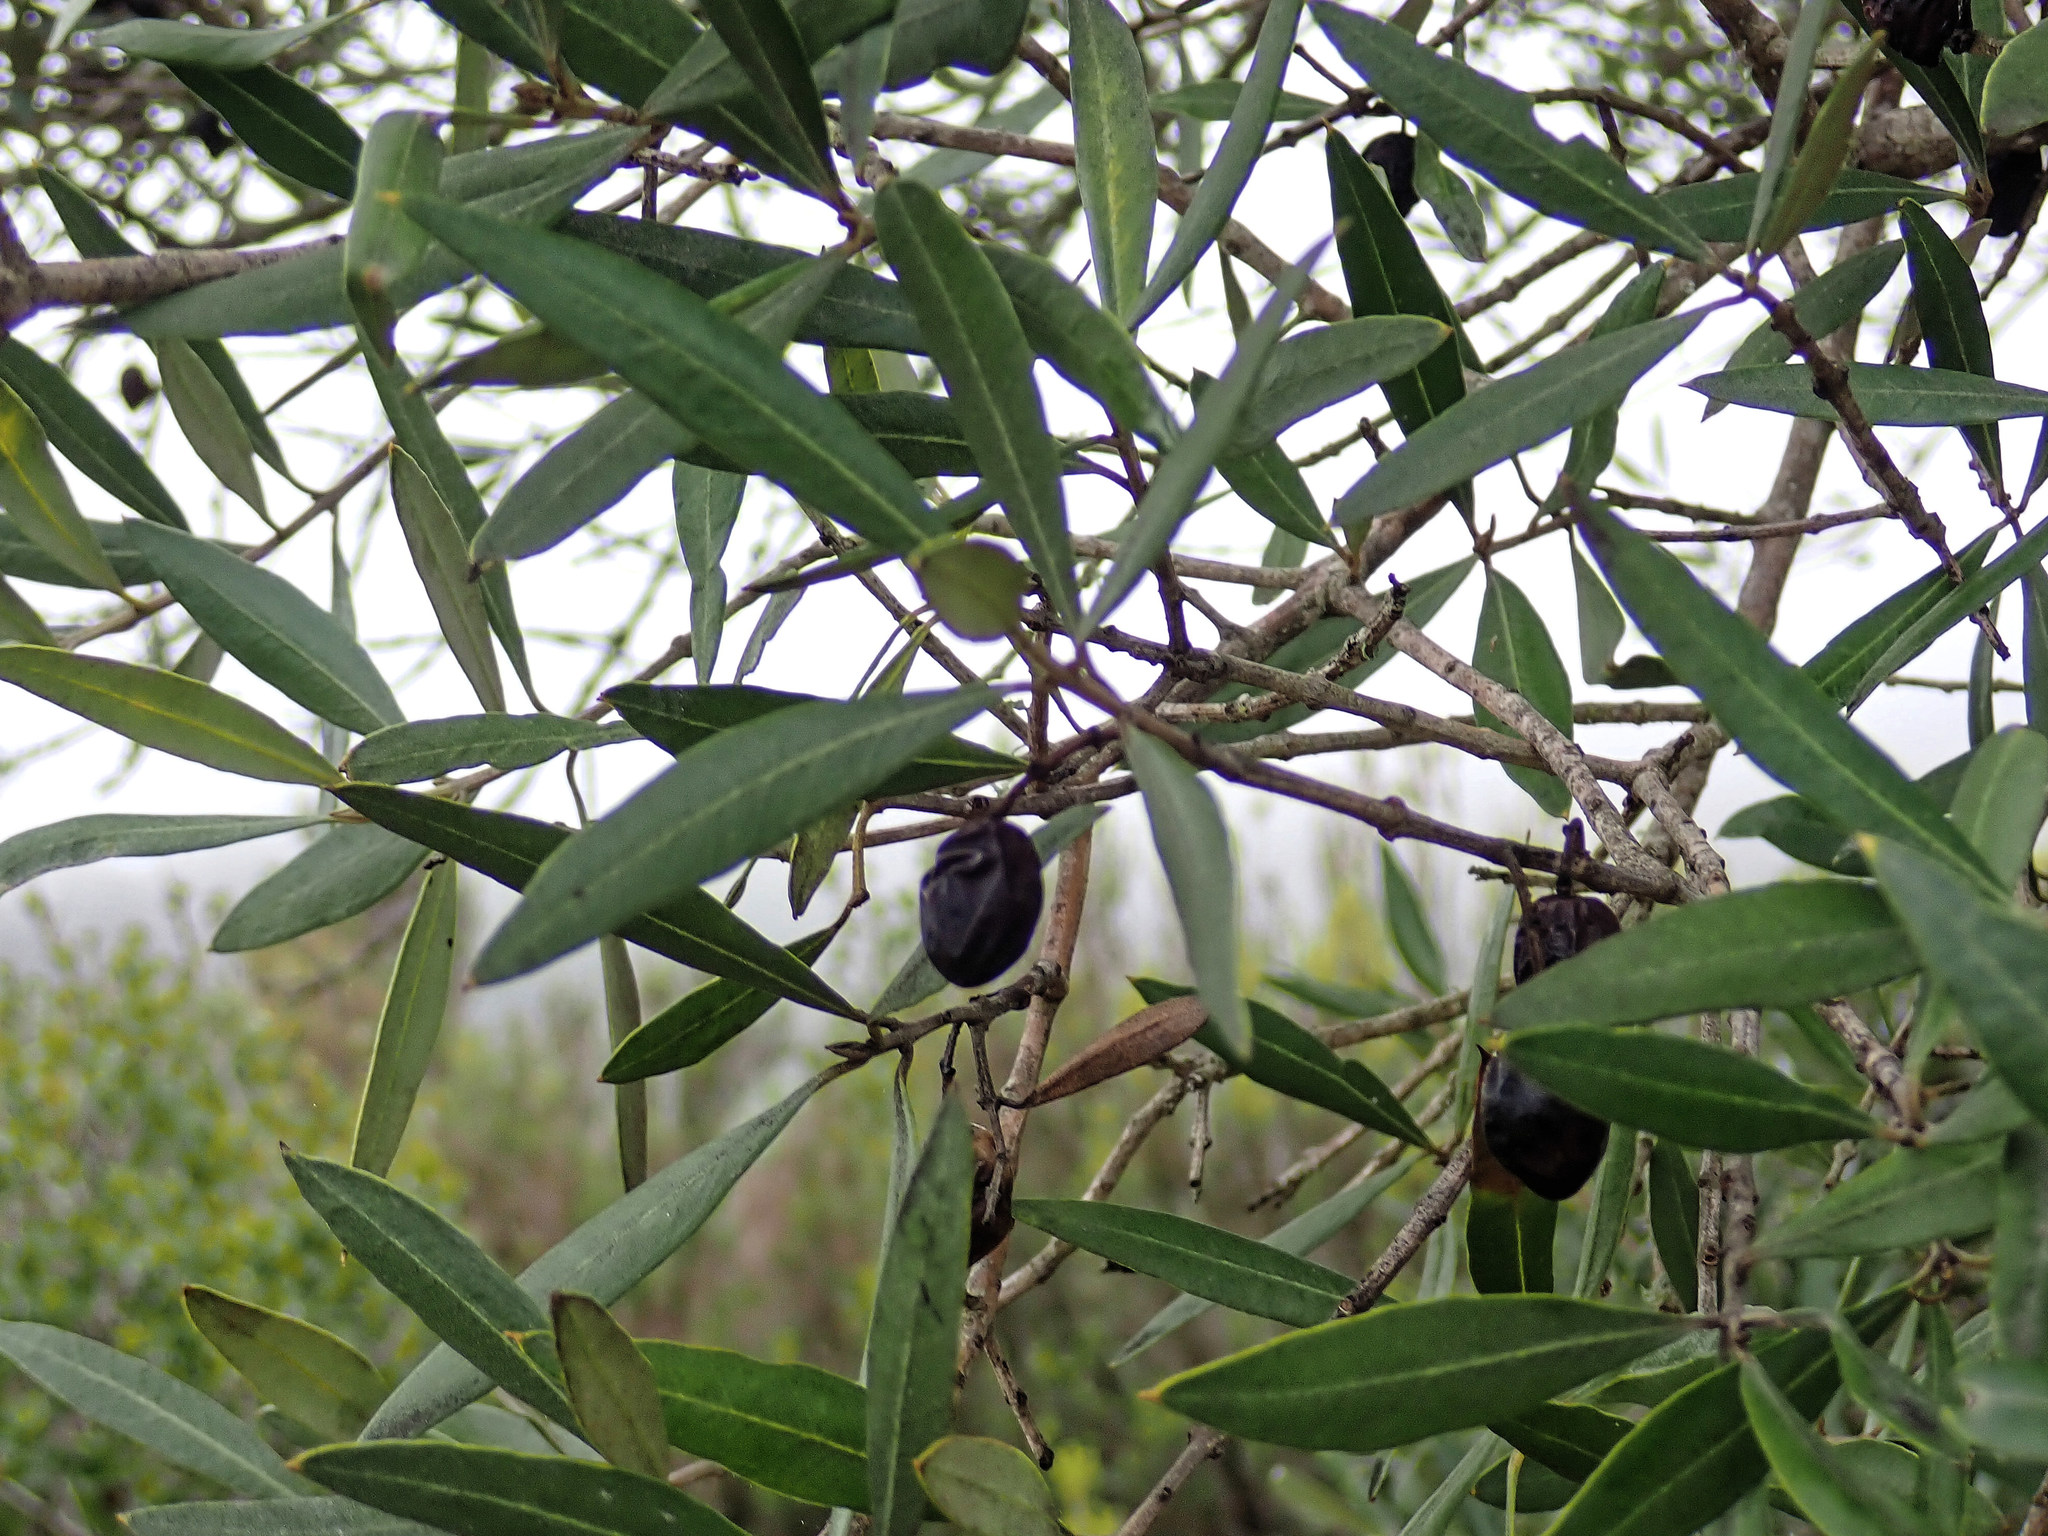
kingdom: Plantae
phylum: Tracheophyta
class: Magnoliopsida
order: Lamiales
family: Oleaceae
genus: Olea
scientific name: Olea europaea
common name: Olive
